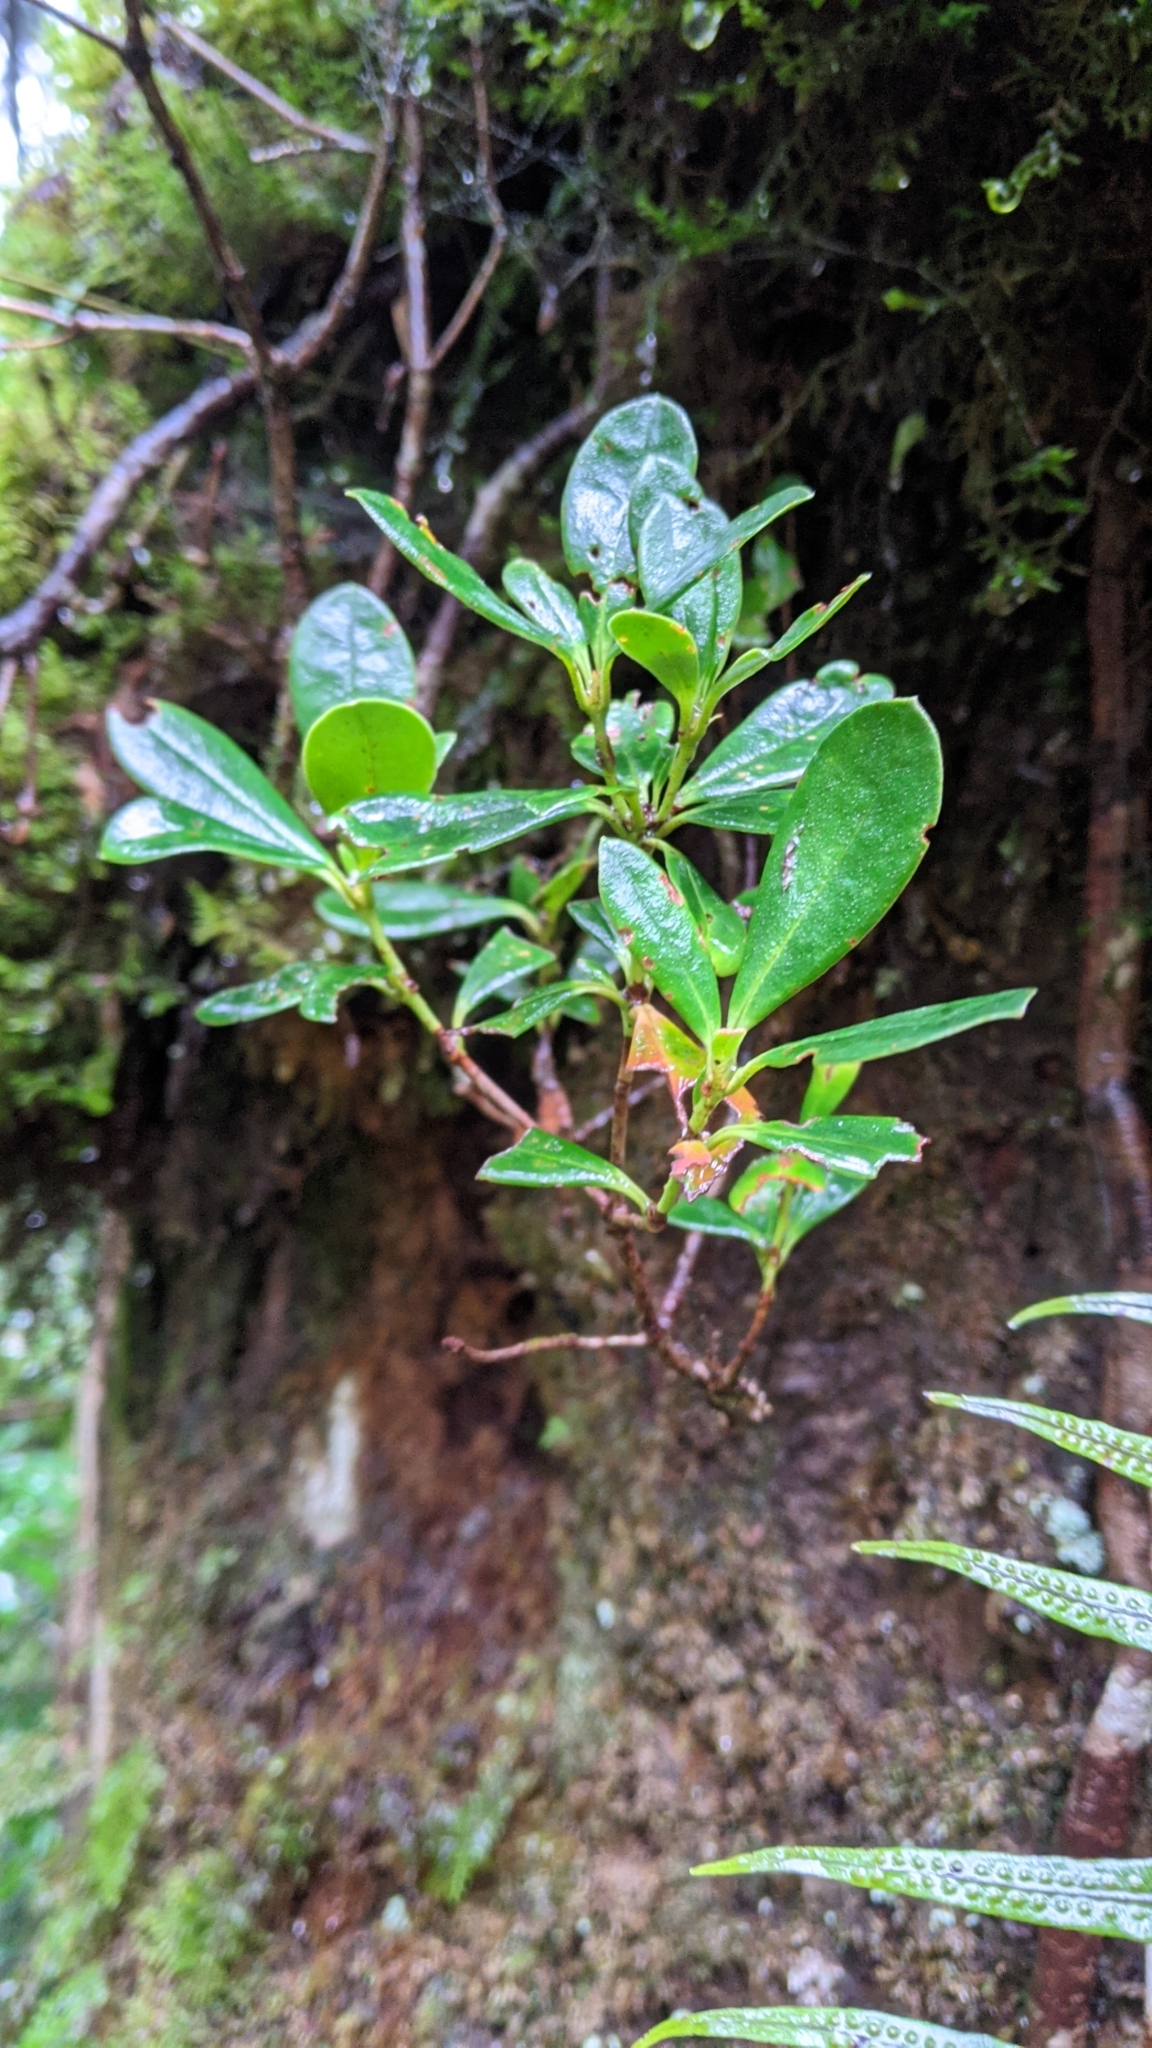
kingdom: Plantae
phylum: Tracheophyta
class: Magnoliopsida
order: Ericales
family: Ericaceae
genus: Rhododendron
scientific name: Rhododendron kawakamii
